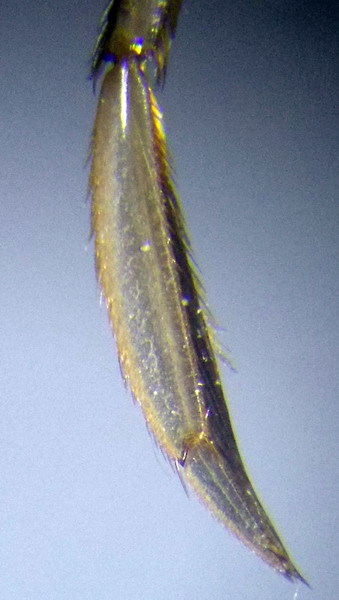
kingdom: Animalia
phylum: Arthropoda
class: Insecta
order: Hemiptera
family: Corixidae
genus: Sigara
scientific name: Sigara striata
